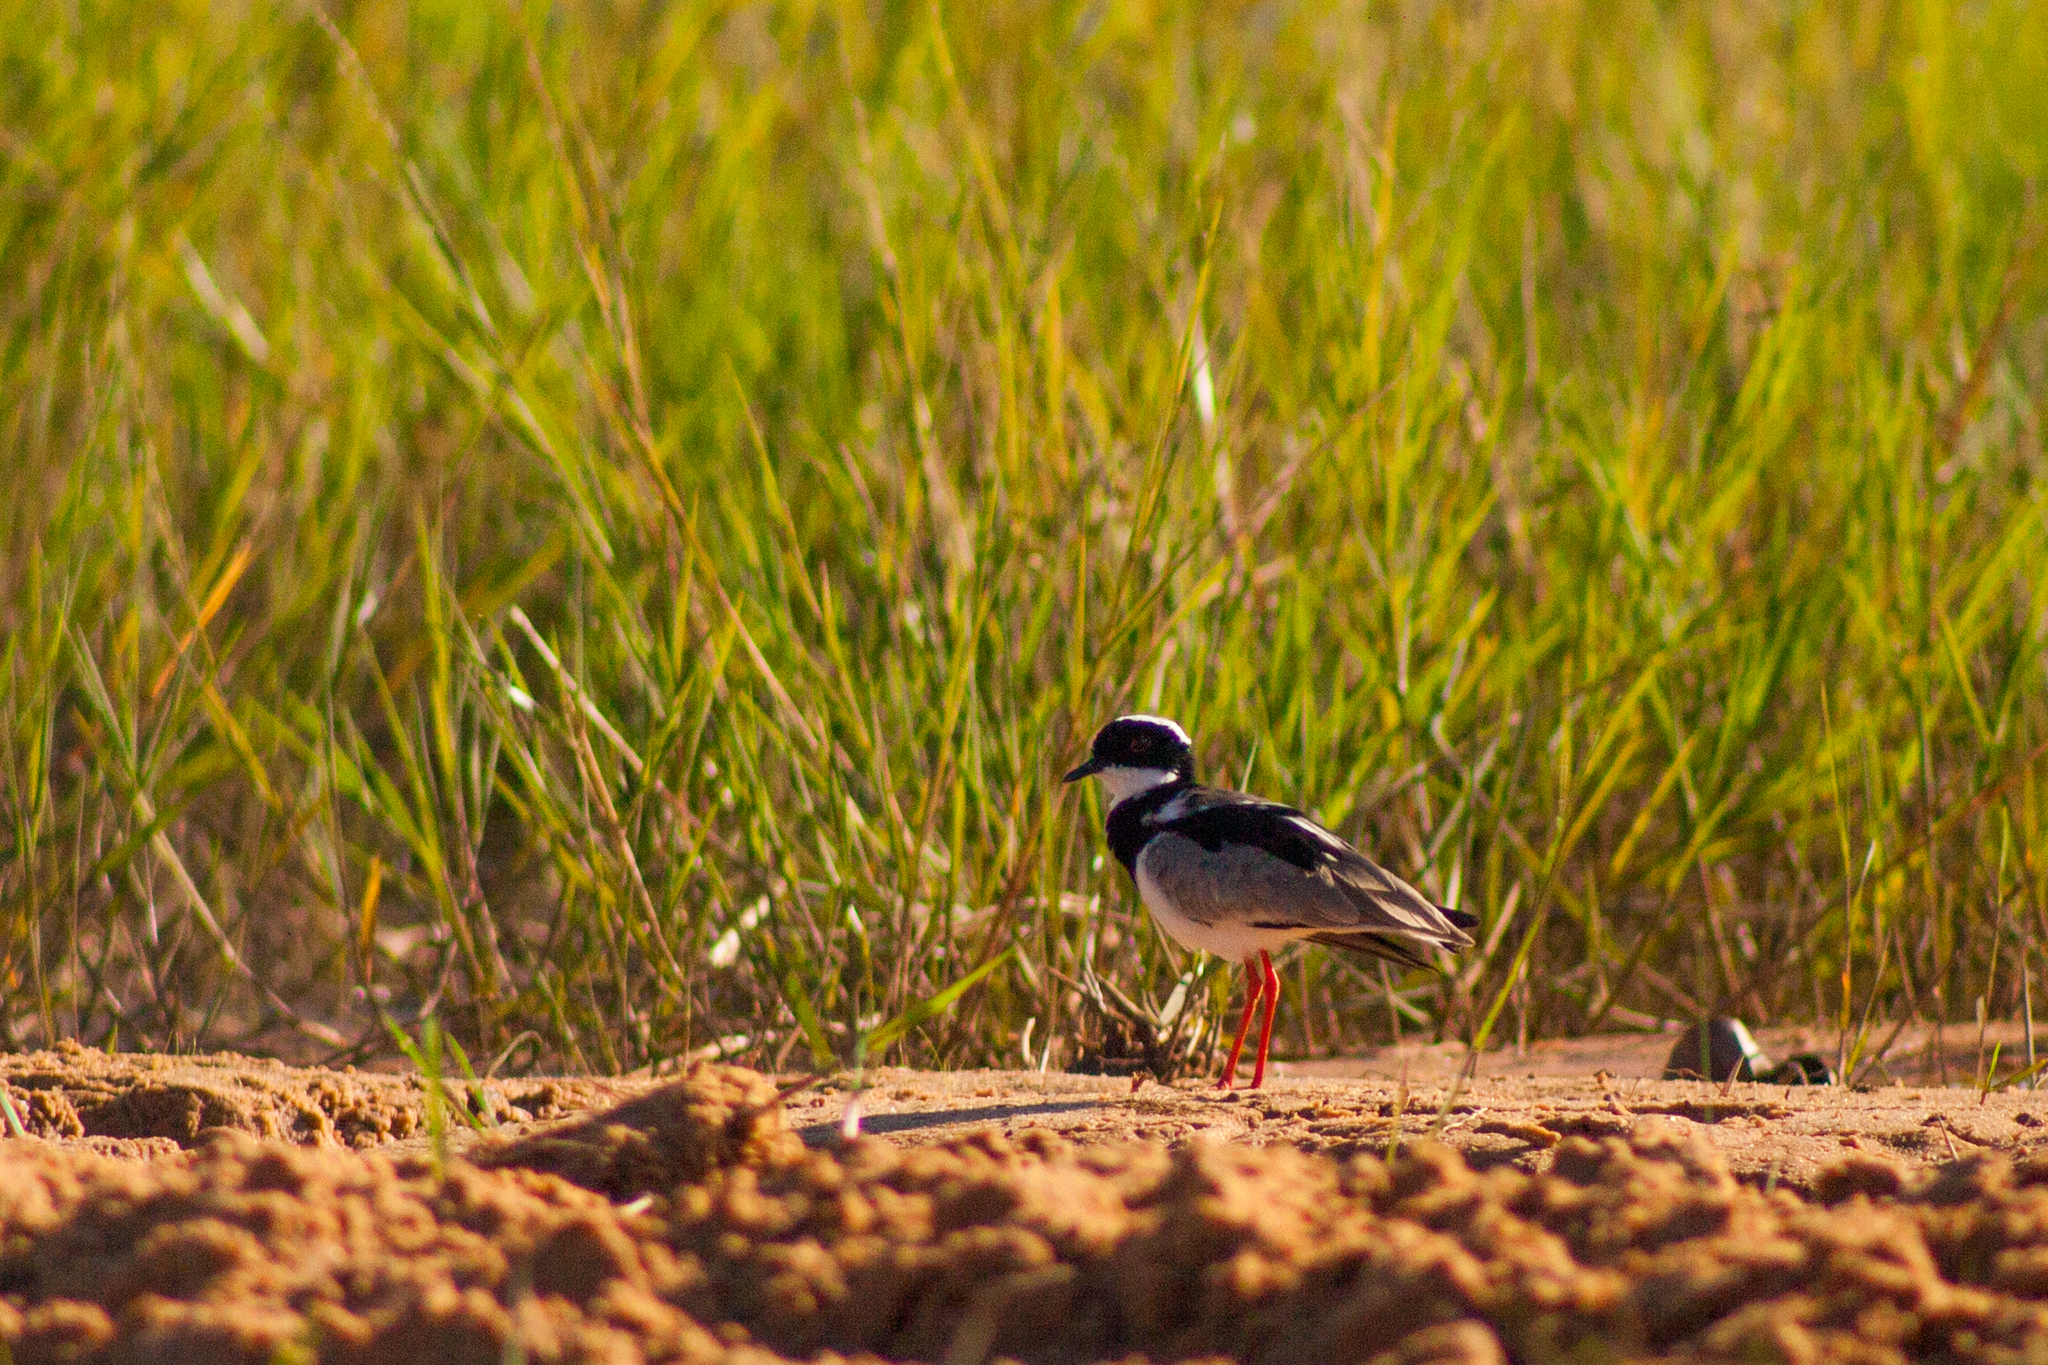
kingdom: Animalia
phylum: Chordata
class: Aves
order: Charadriiformes
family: Charadriidae
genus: Hoploxypterus
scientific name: Hoploxypterus cayanus
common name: Pied plover
